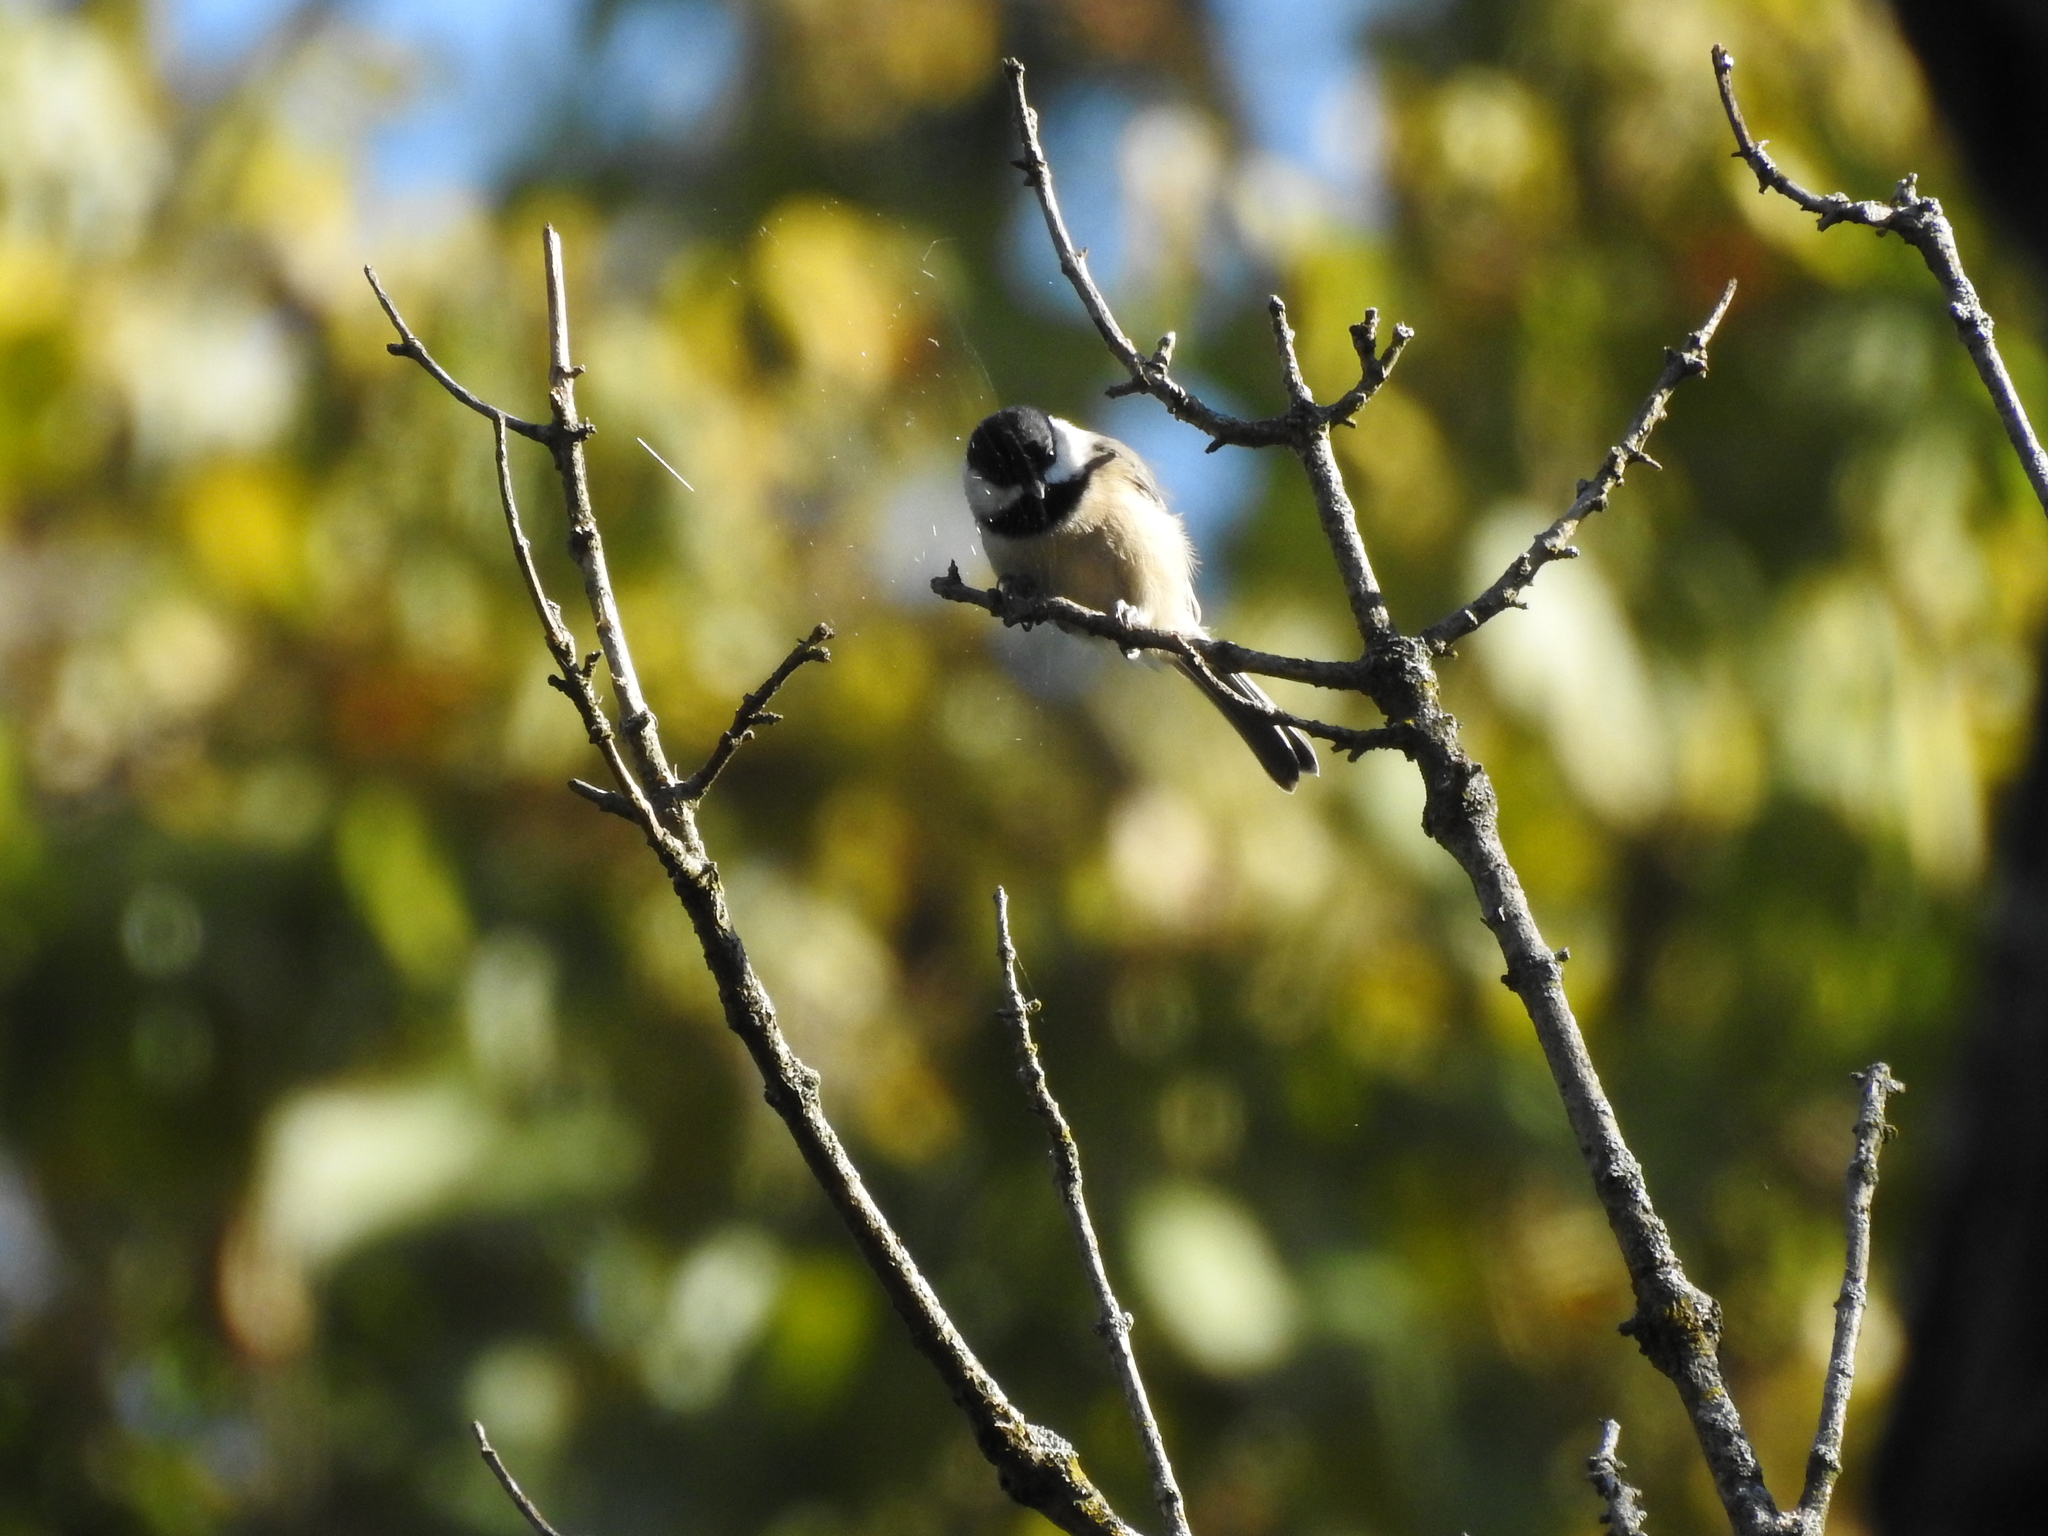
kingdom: Animalia
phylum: Chordata
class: Aves
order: Passeriformes
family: Paridae
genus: Poecile
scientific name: Poecile carolinensis
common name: Carolina chickadee
